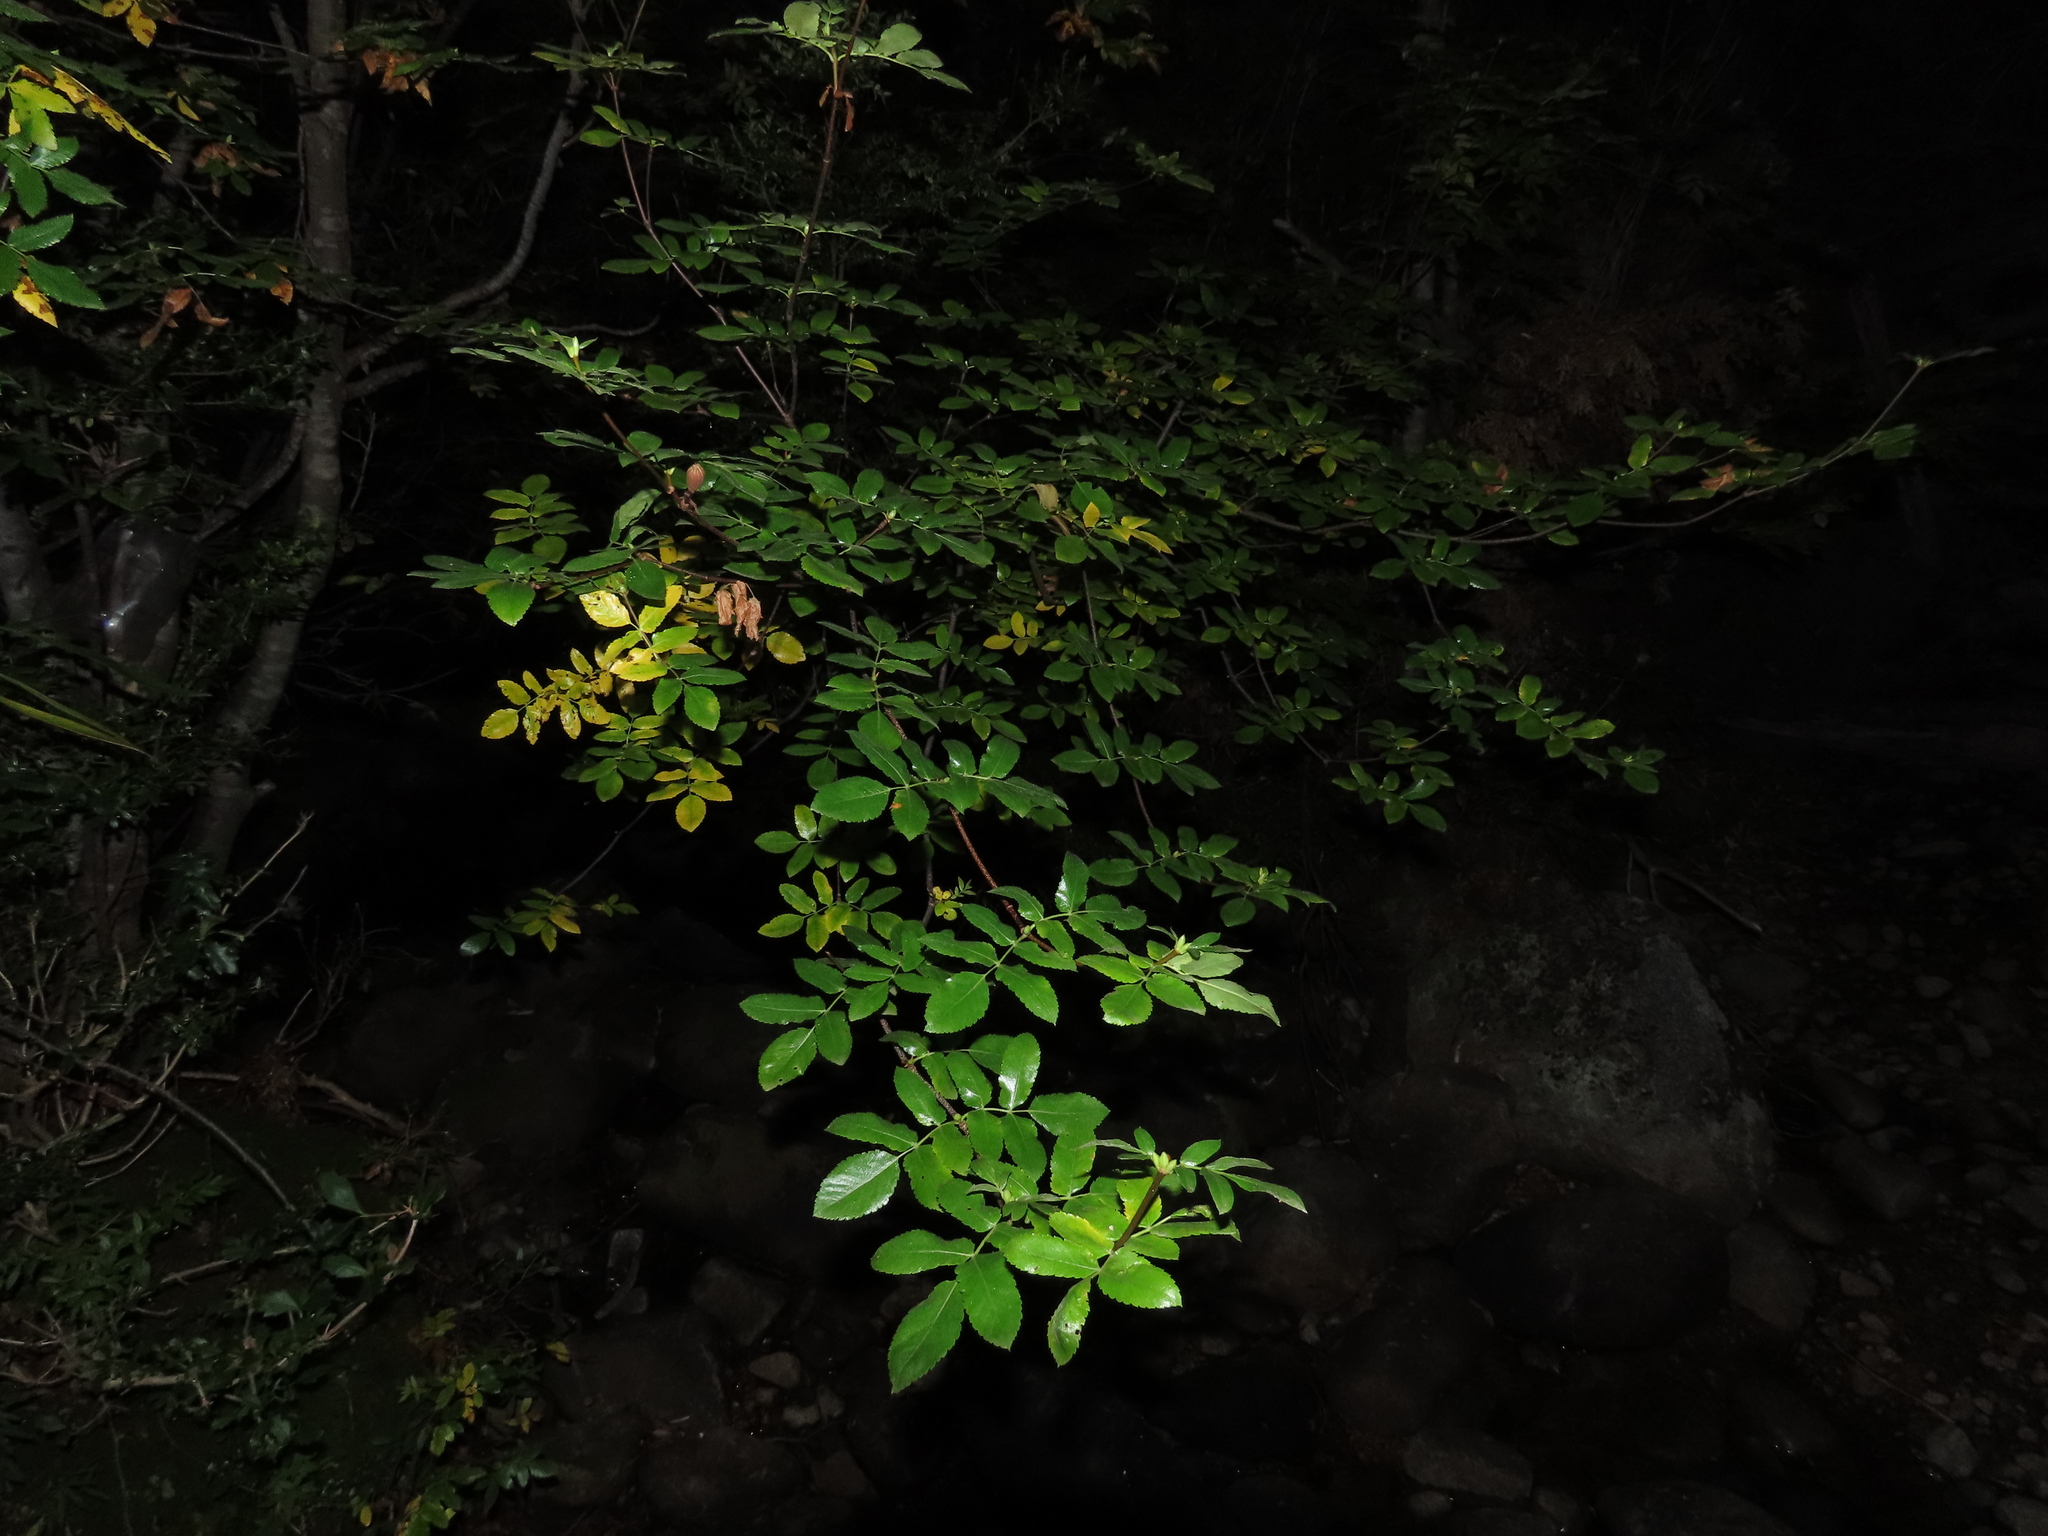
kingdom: Plantae
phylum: Tracheophyta
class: Magnoliopsida
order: Oxalidales
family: Cunoniaceae
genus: Eucryphia
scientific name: Eucryphia glutinosa
